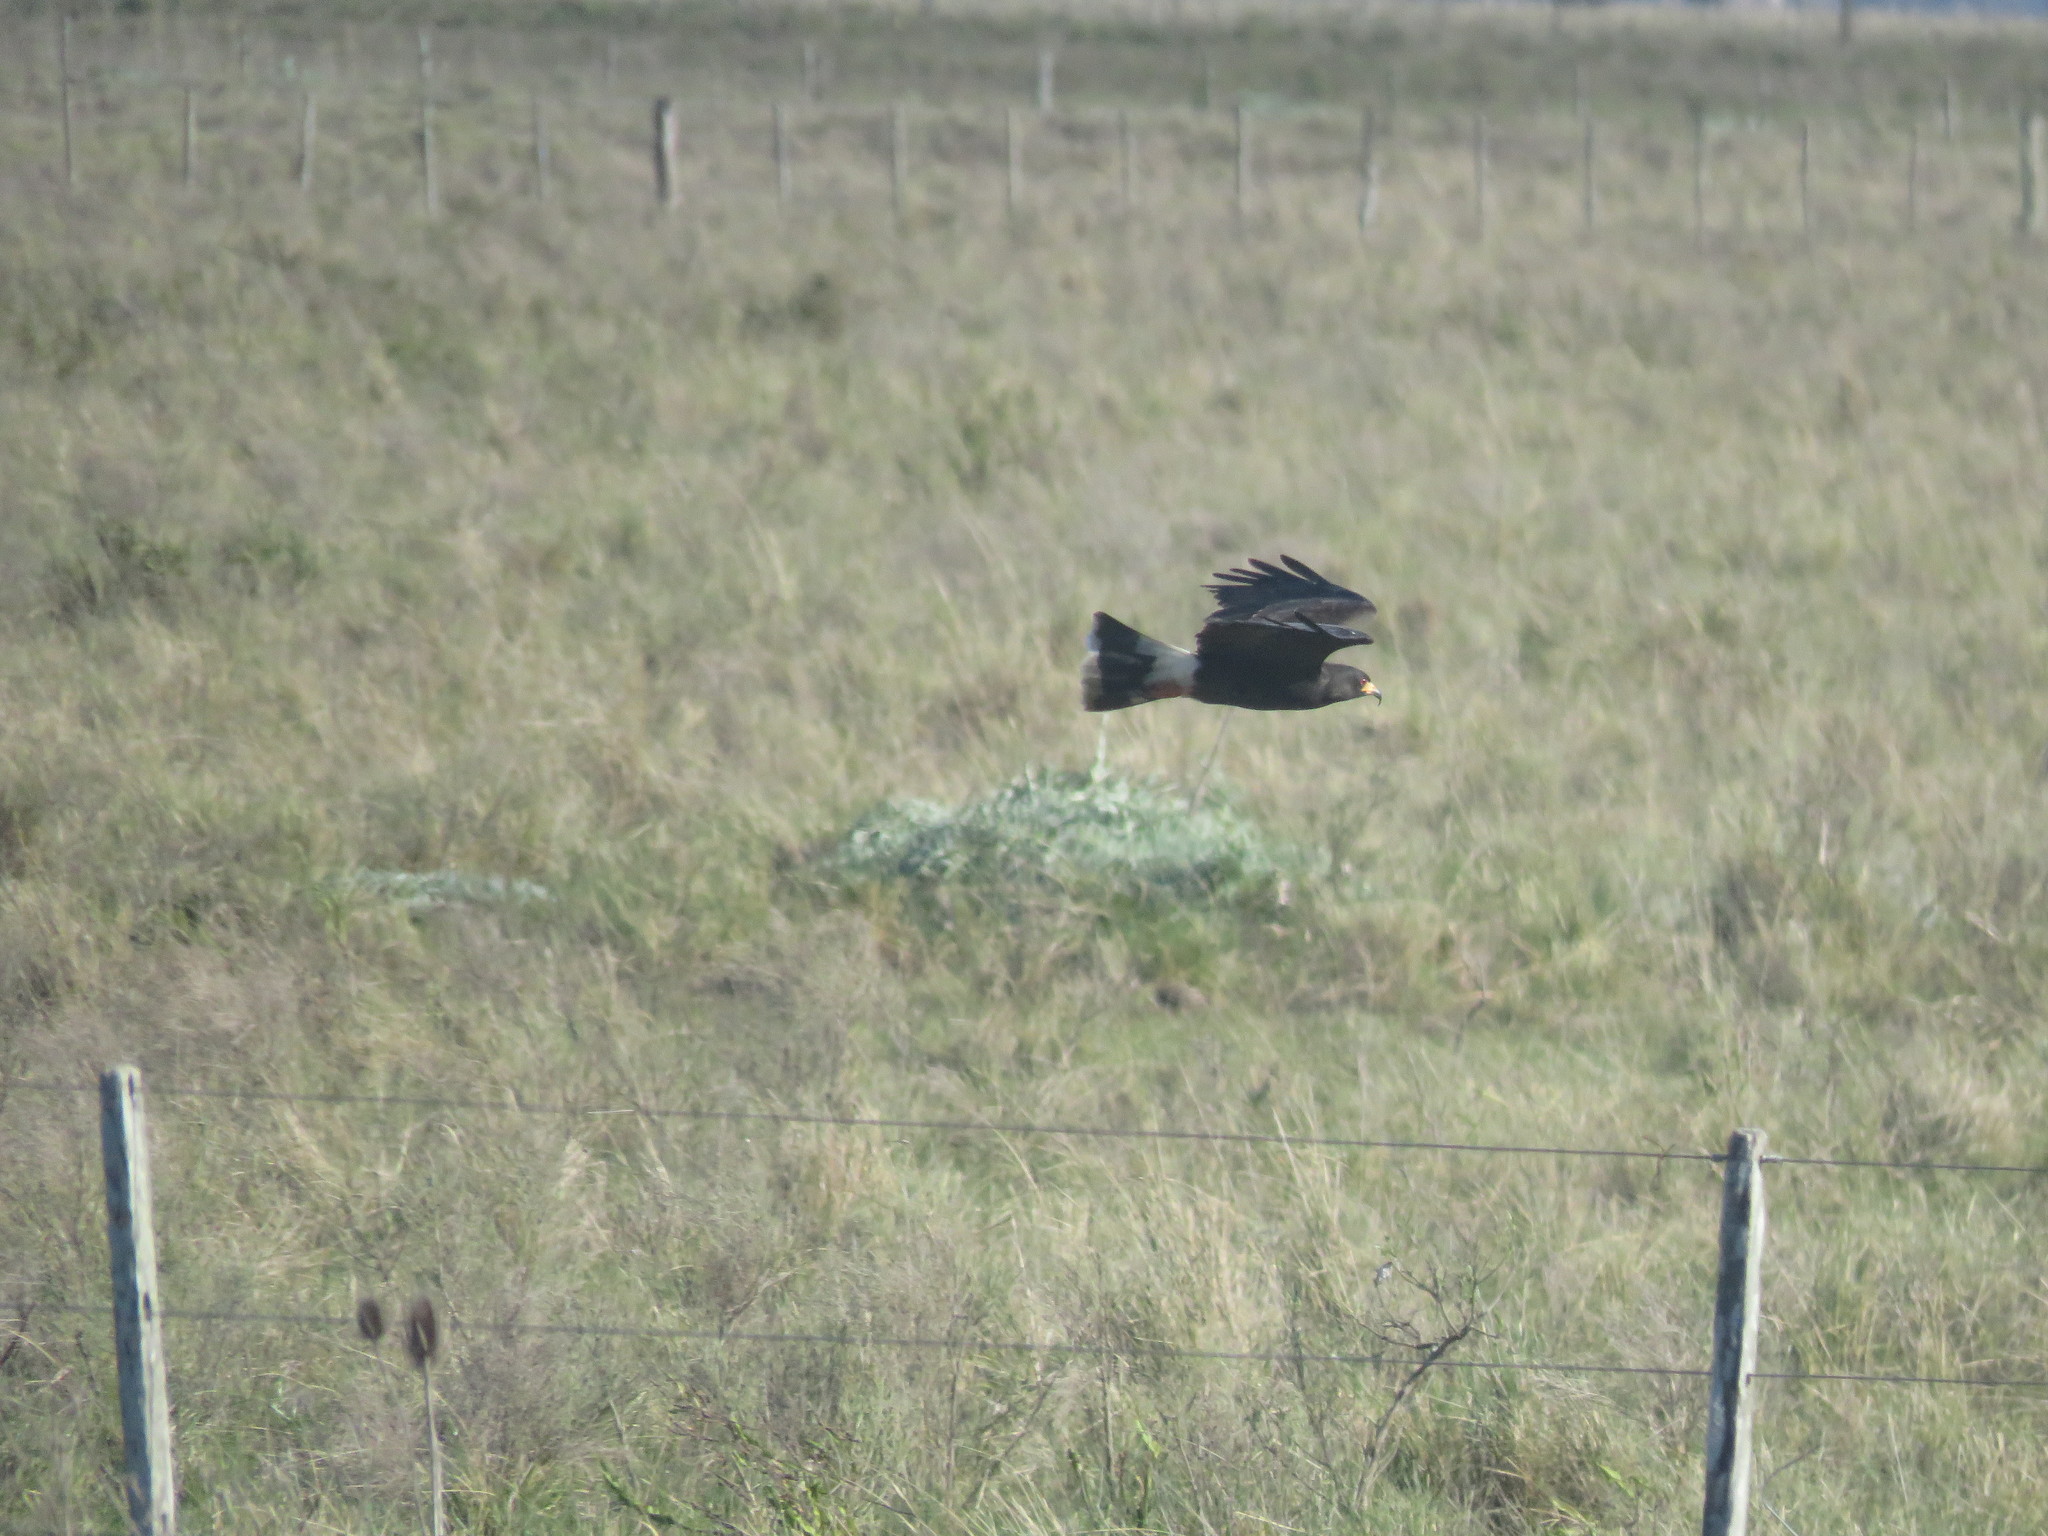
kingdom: Animalia
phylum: Chordata
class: Aves
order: Accipitriformes
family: Accipitridae
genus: Rostrhamus
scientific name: Rostrhamus sociabilis
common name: Snail kite
